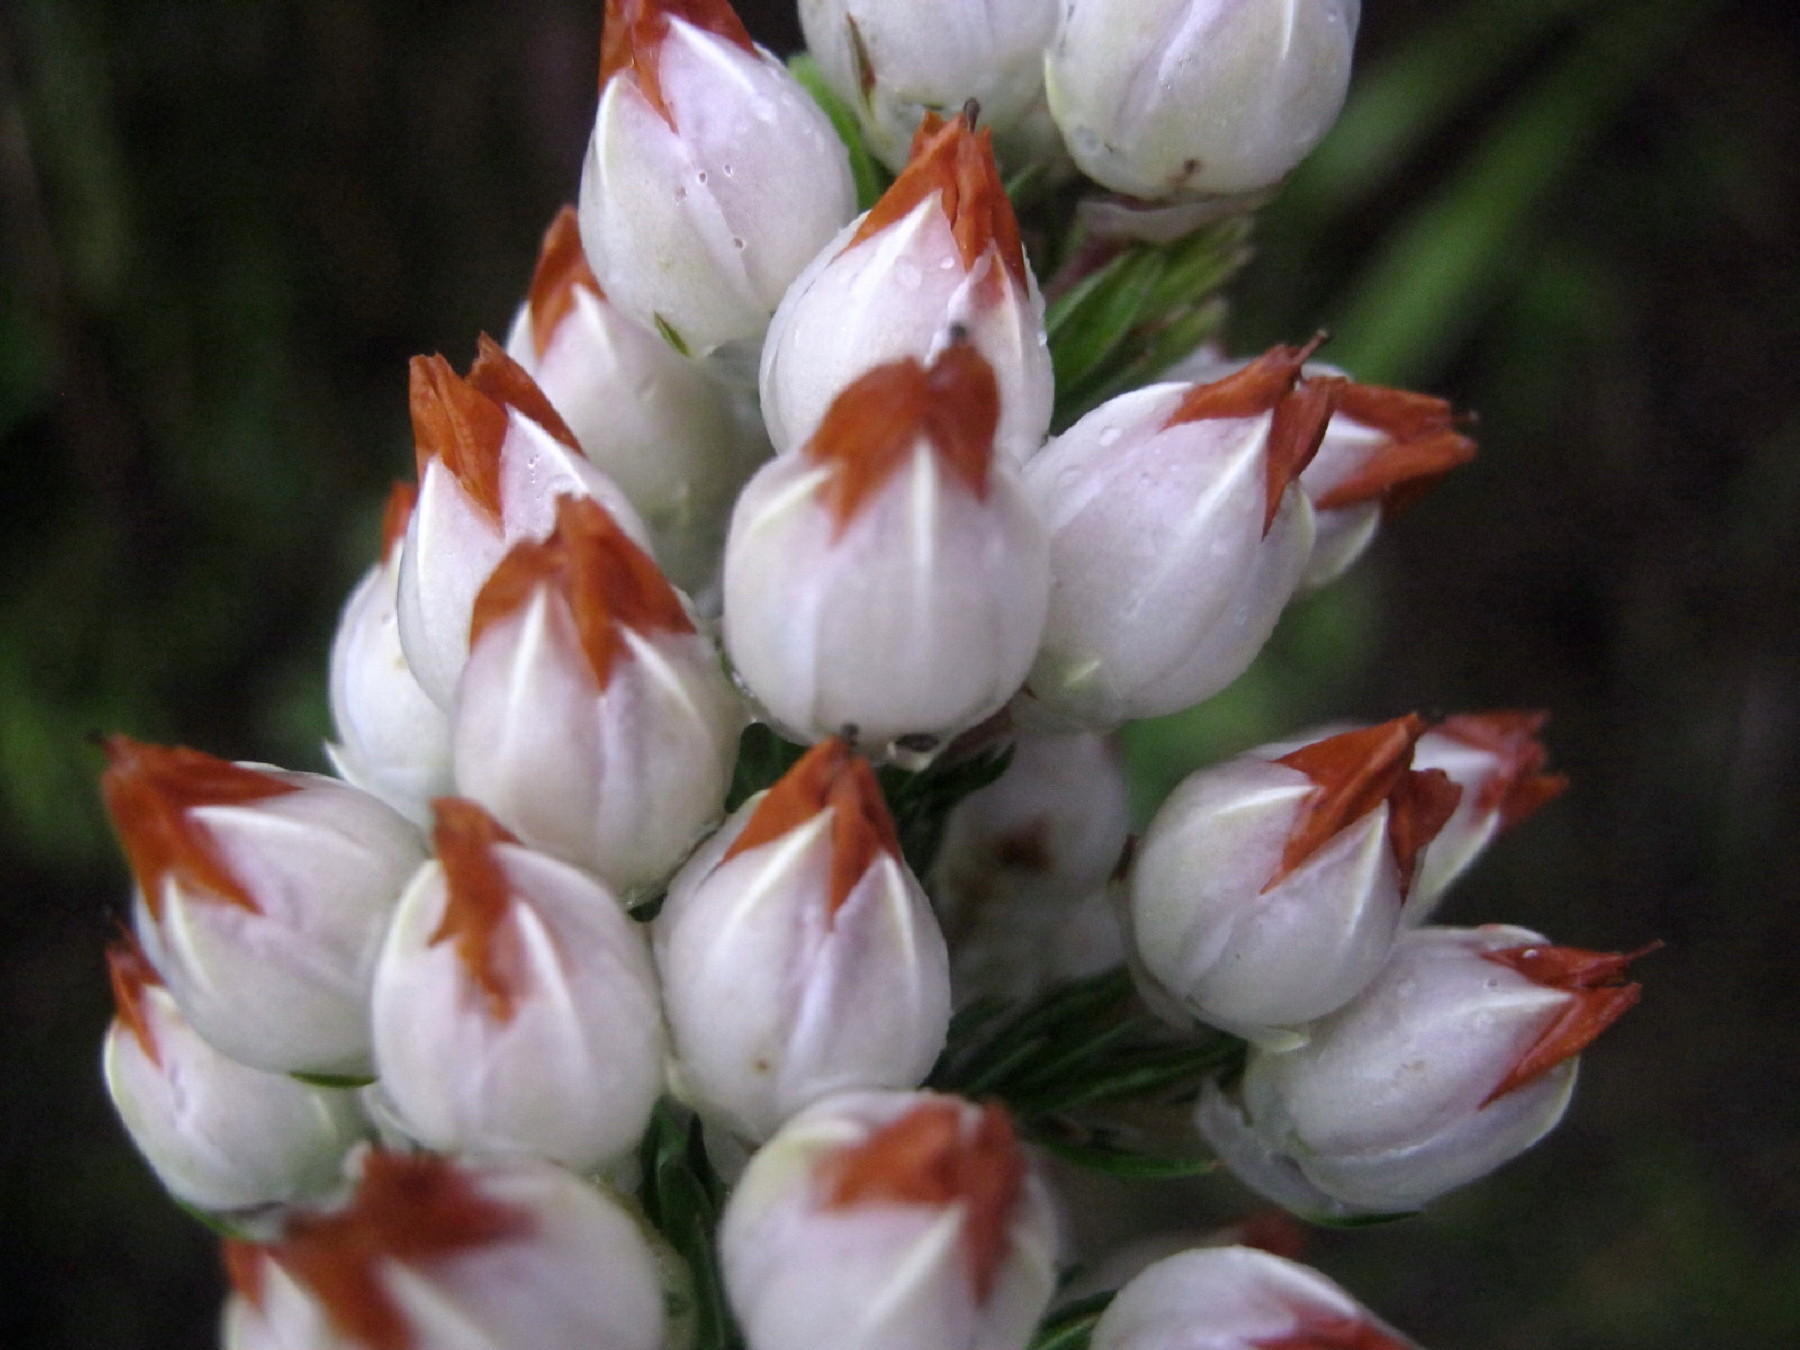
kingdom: Plantae
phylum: Tracheophyta
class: Magnoliopsida
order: Ericales
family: Ericaceae
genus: Erica
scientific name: Erica papyracea
